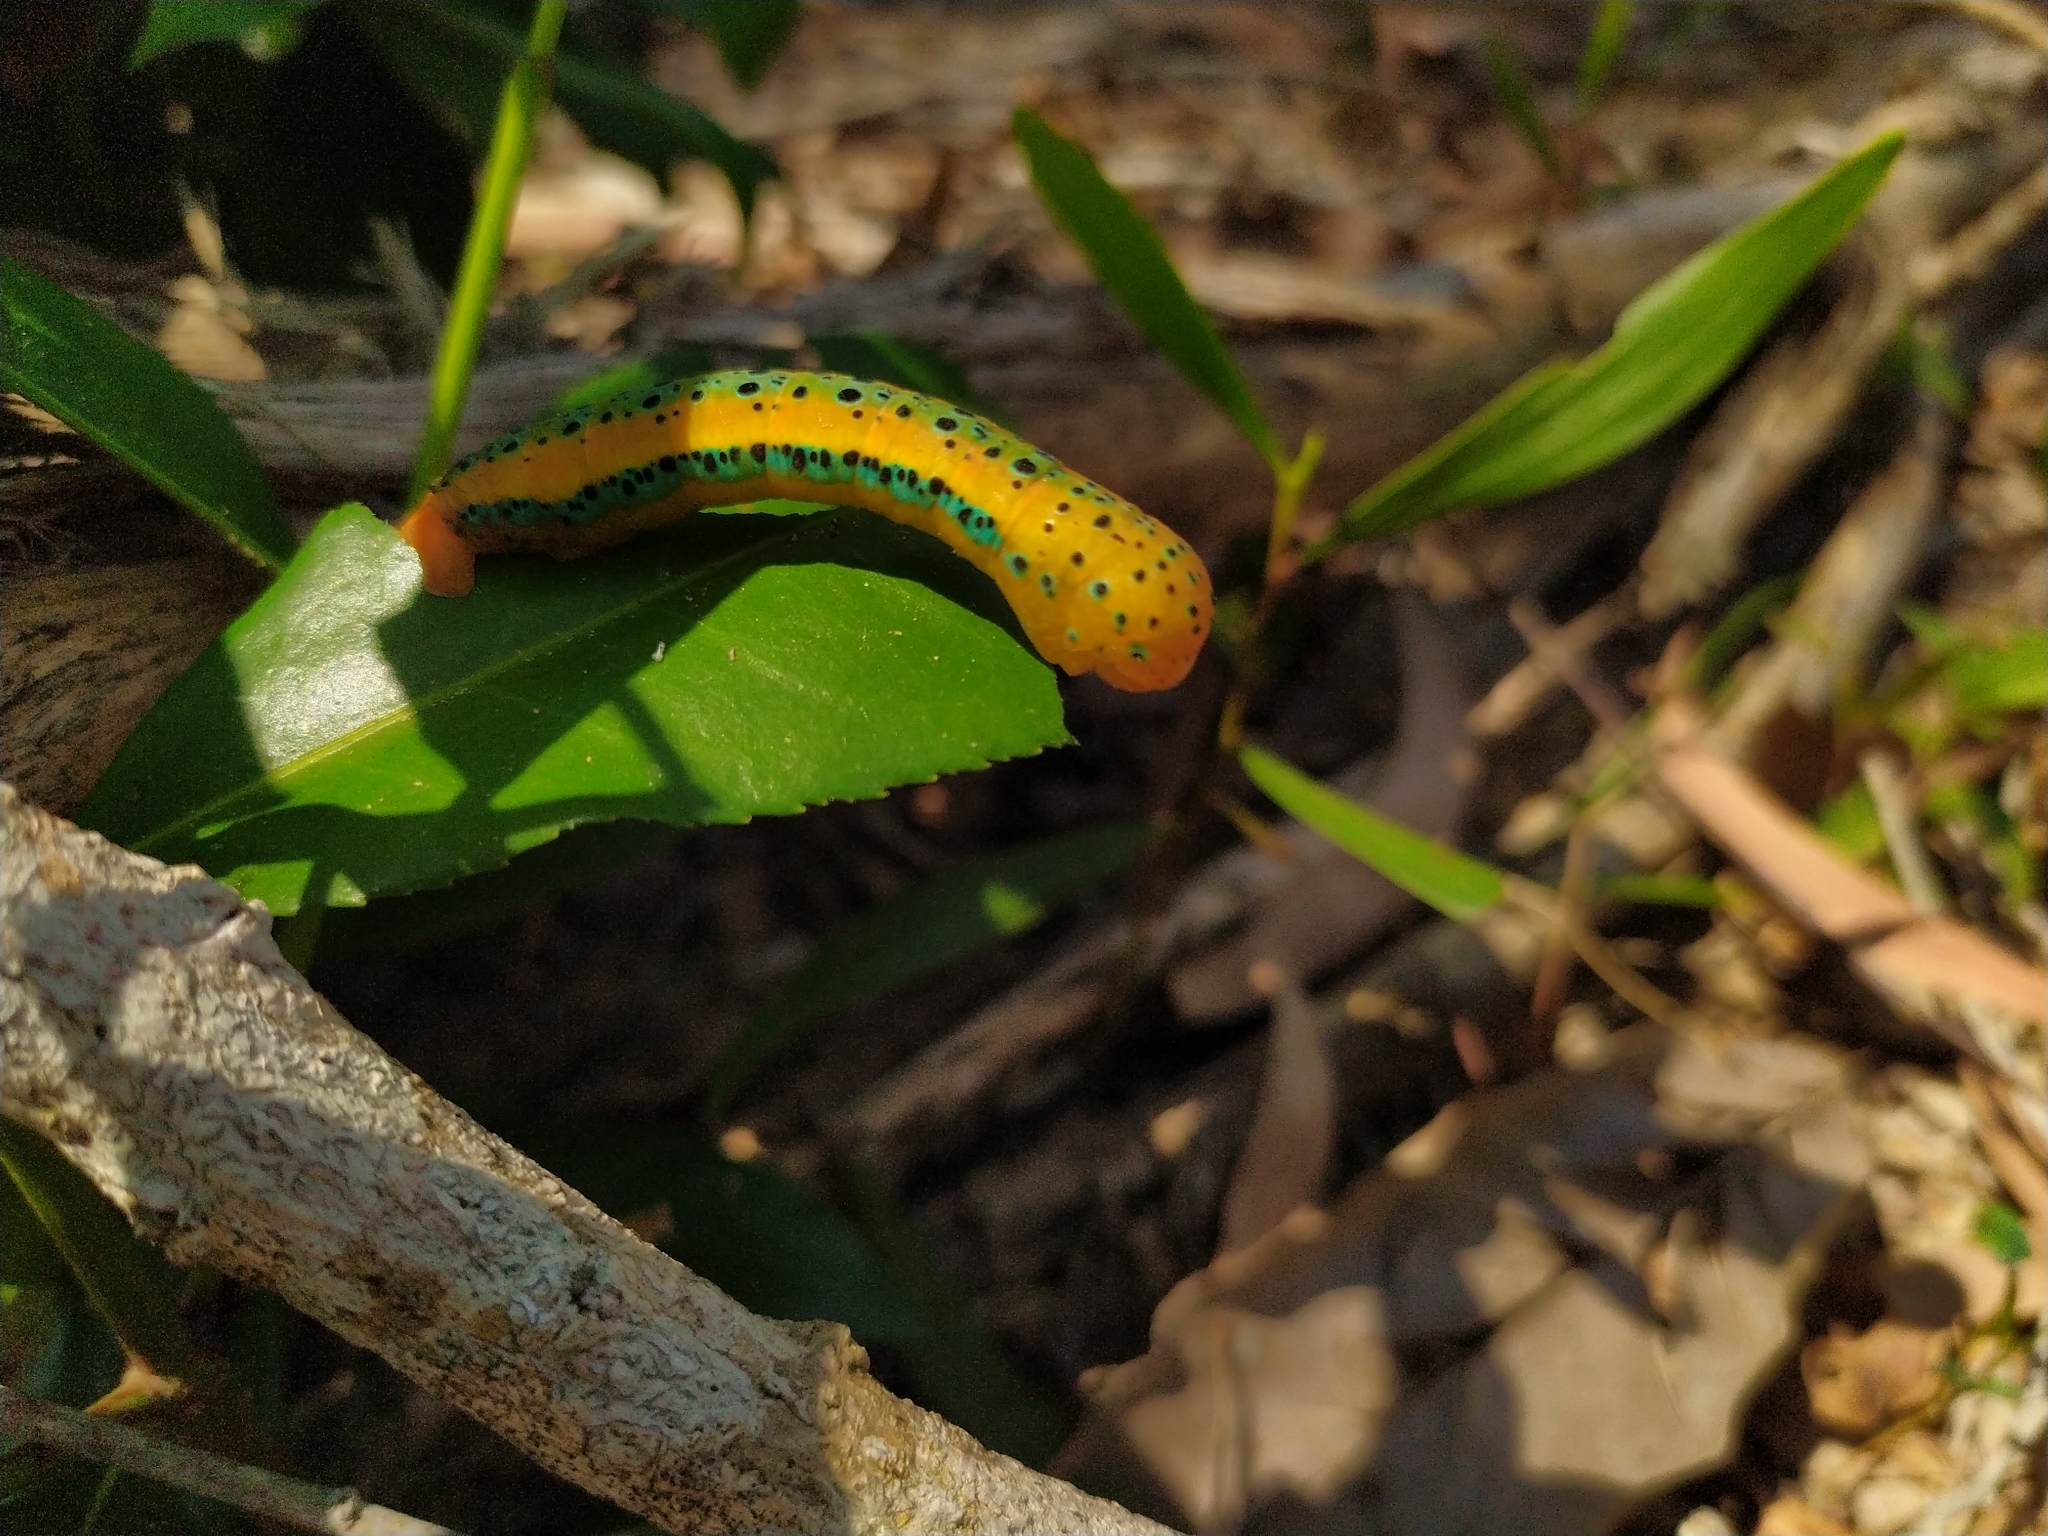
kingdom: Animalia
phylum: Arthropoda
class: Insecta
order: Lepidoptera
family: Geometridae
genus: Dysphania
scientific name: Dysphania percota
